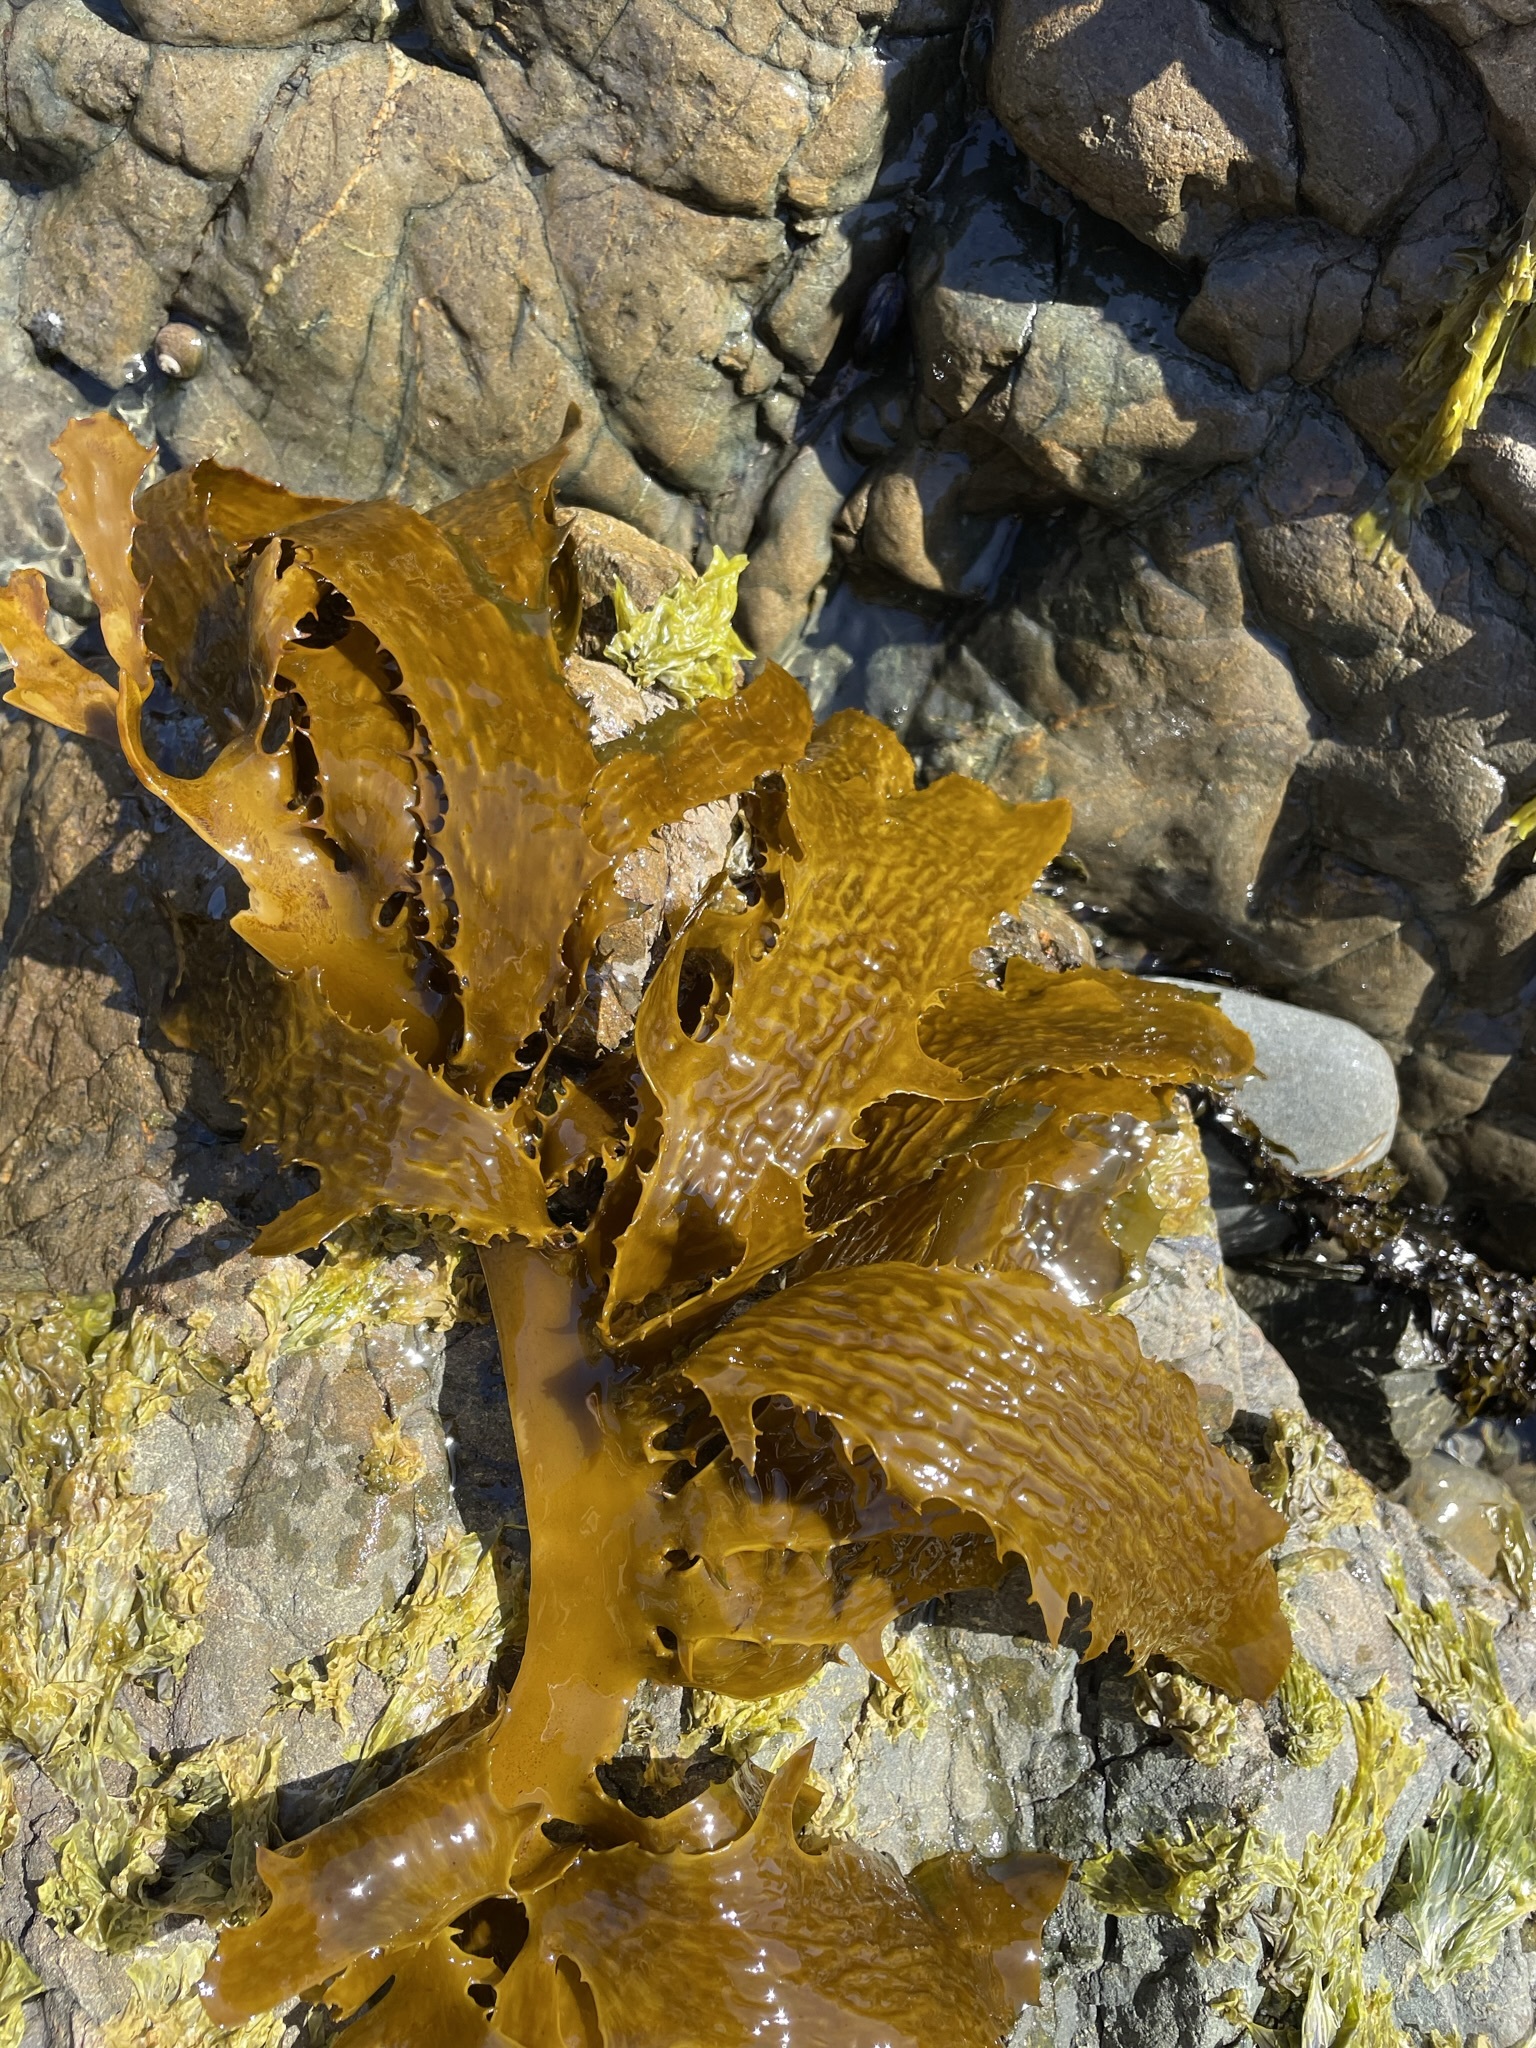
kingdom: Chromista
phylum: Ochrophyta
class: Phaeophyceae
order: Laminariales
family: Lessoniaceae
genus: Ecklonia
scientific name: Ecklonia radiata
